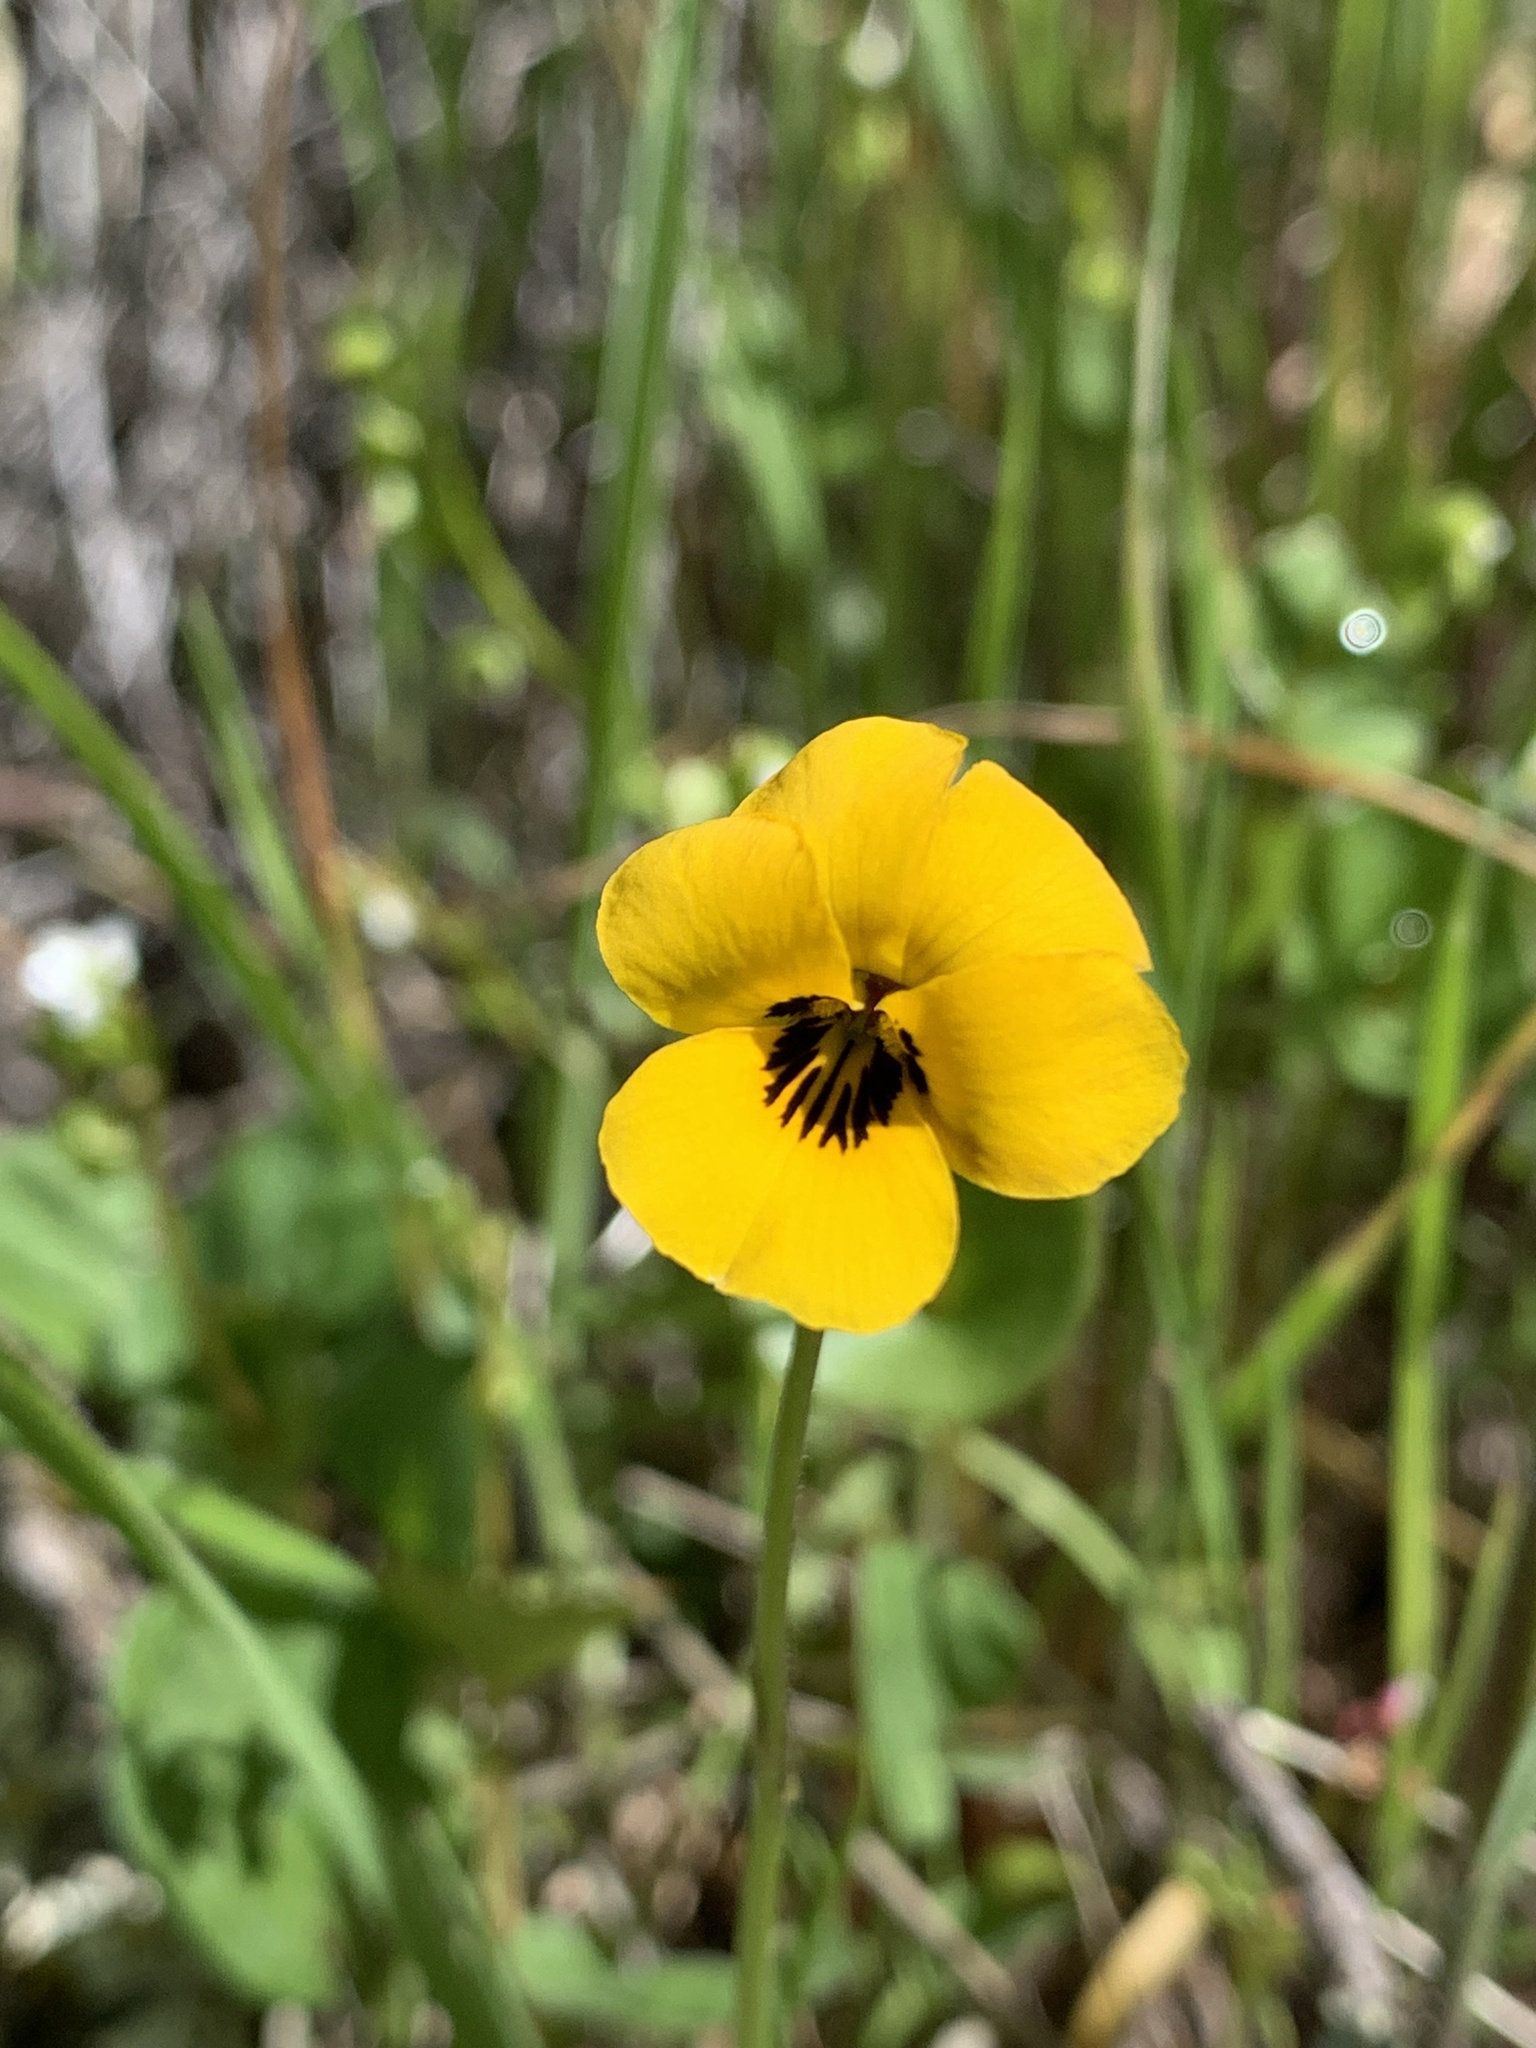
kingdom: Plantae
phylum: Tracheophyta
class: Magnoliopsida
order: Malpighiales
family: Violaceae
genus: Viola
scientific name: Viola pedunculata
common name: California golden violet
